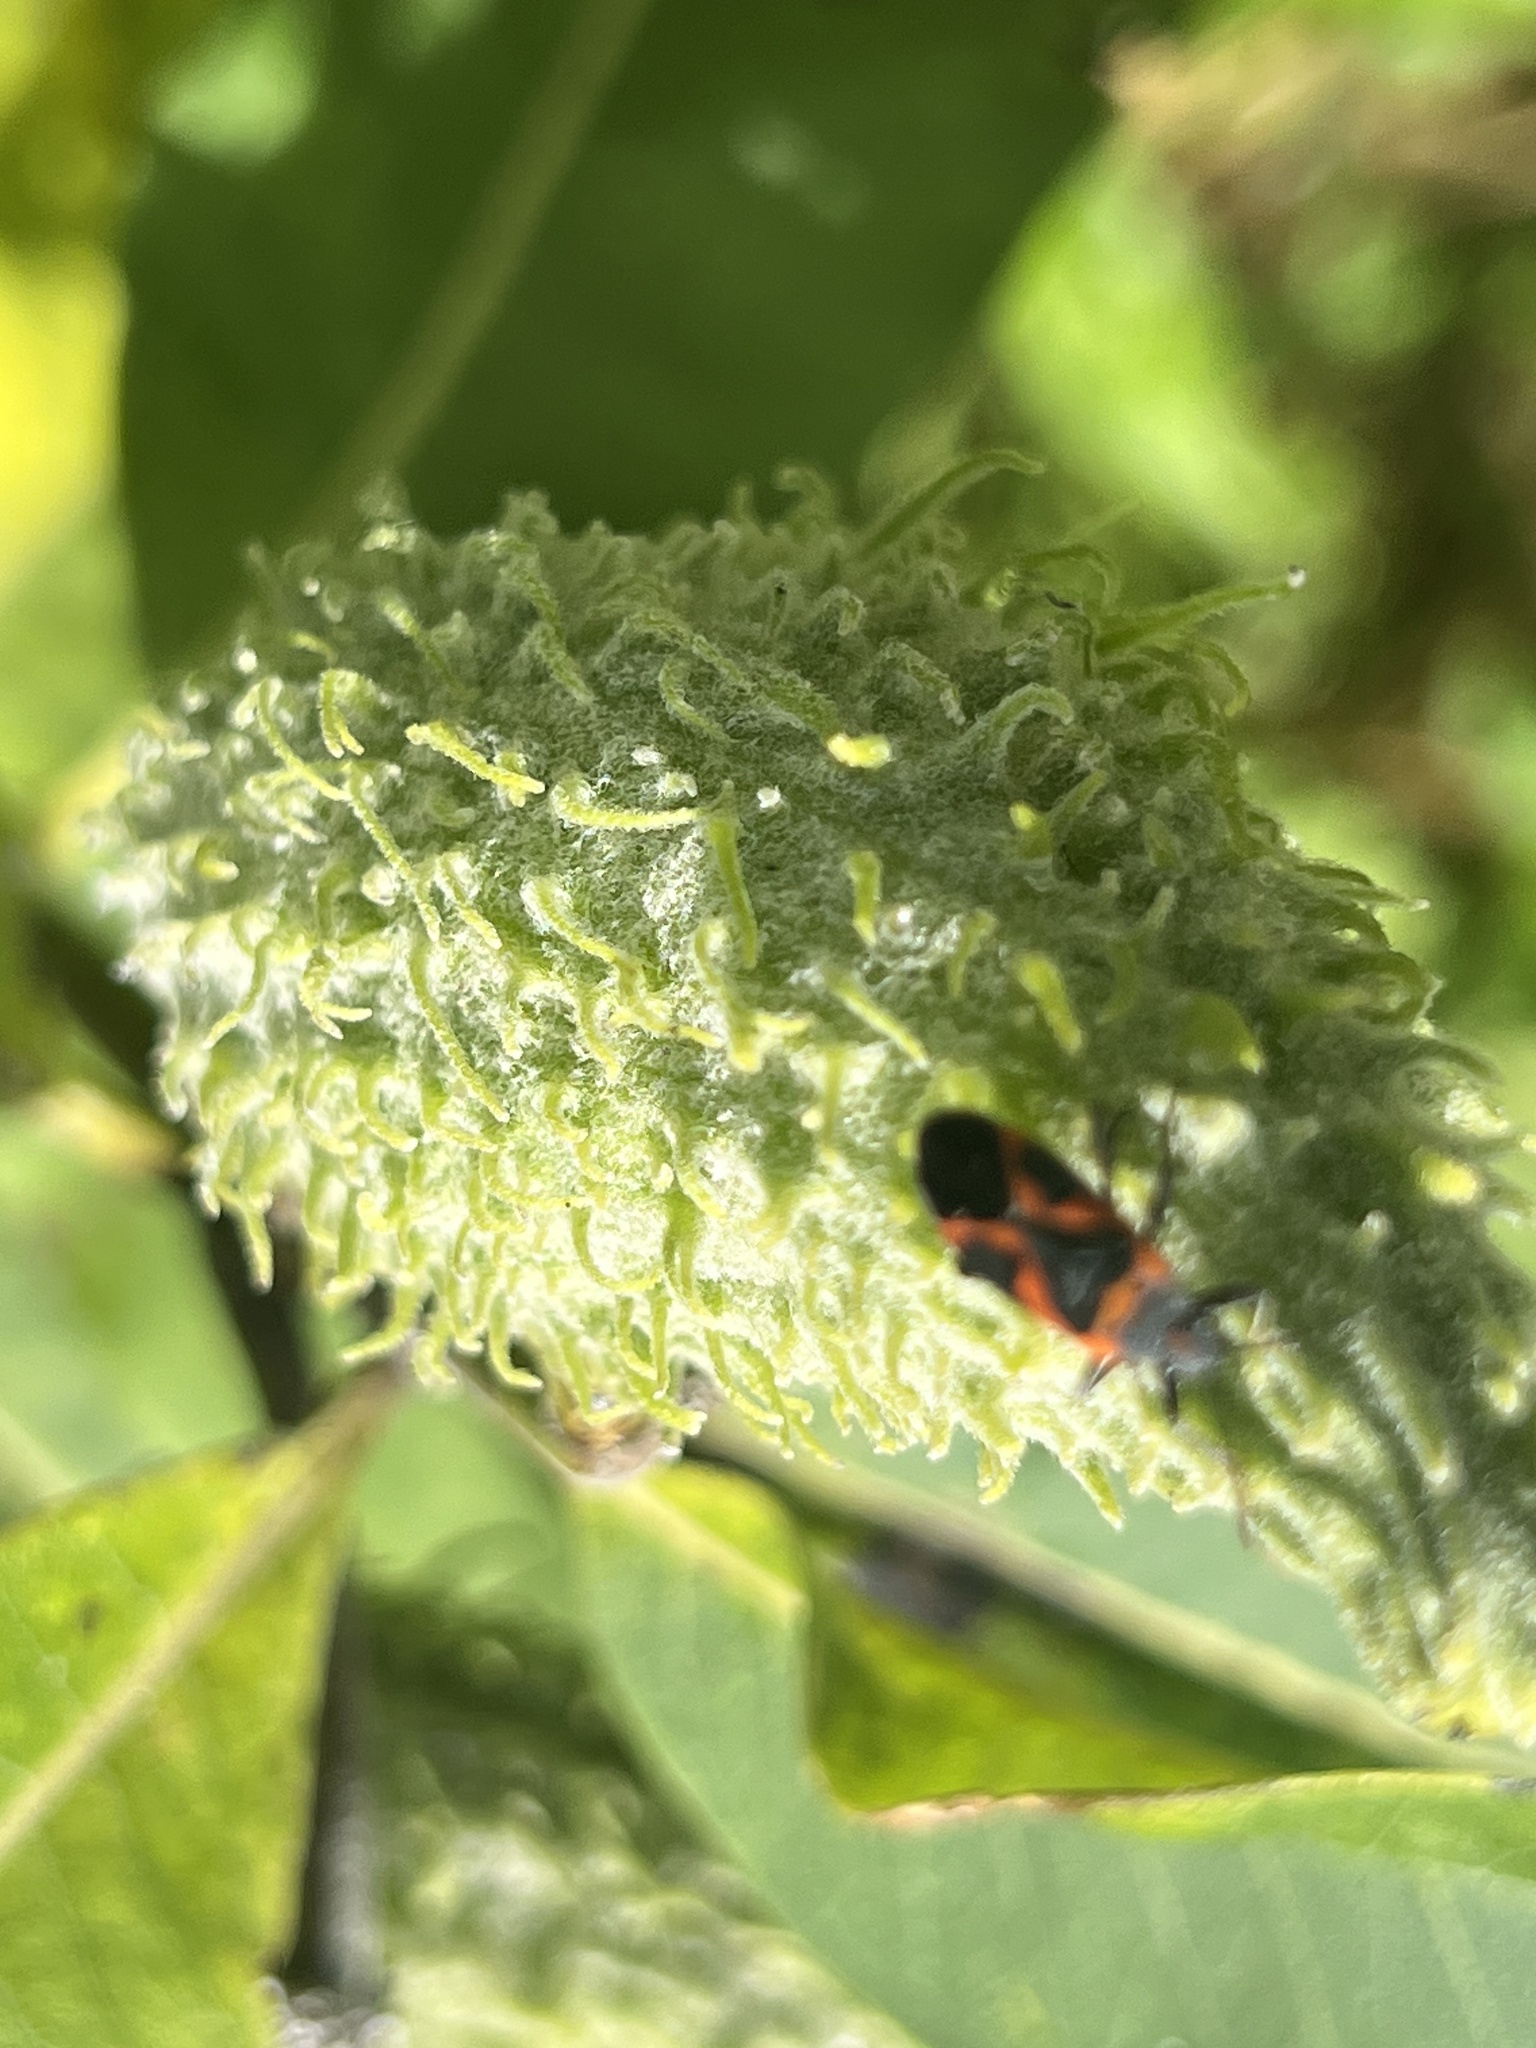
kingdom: Animalia
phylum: Arthropoda
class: Insecta
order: Hemiptera
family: Lygaeidae
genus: Lygaeus
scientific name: Lygaeus kalmii
